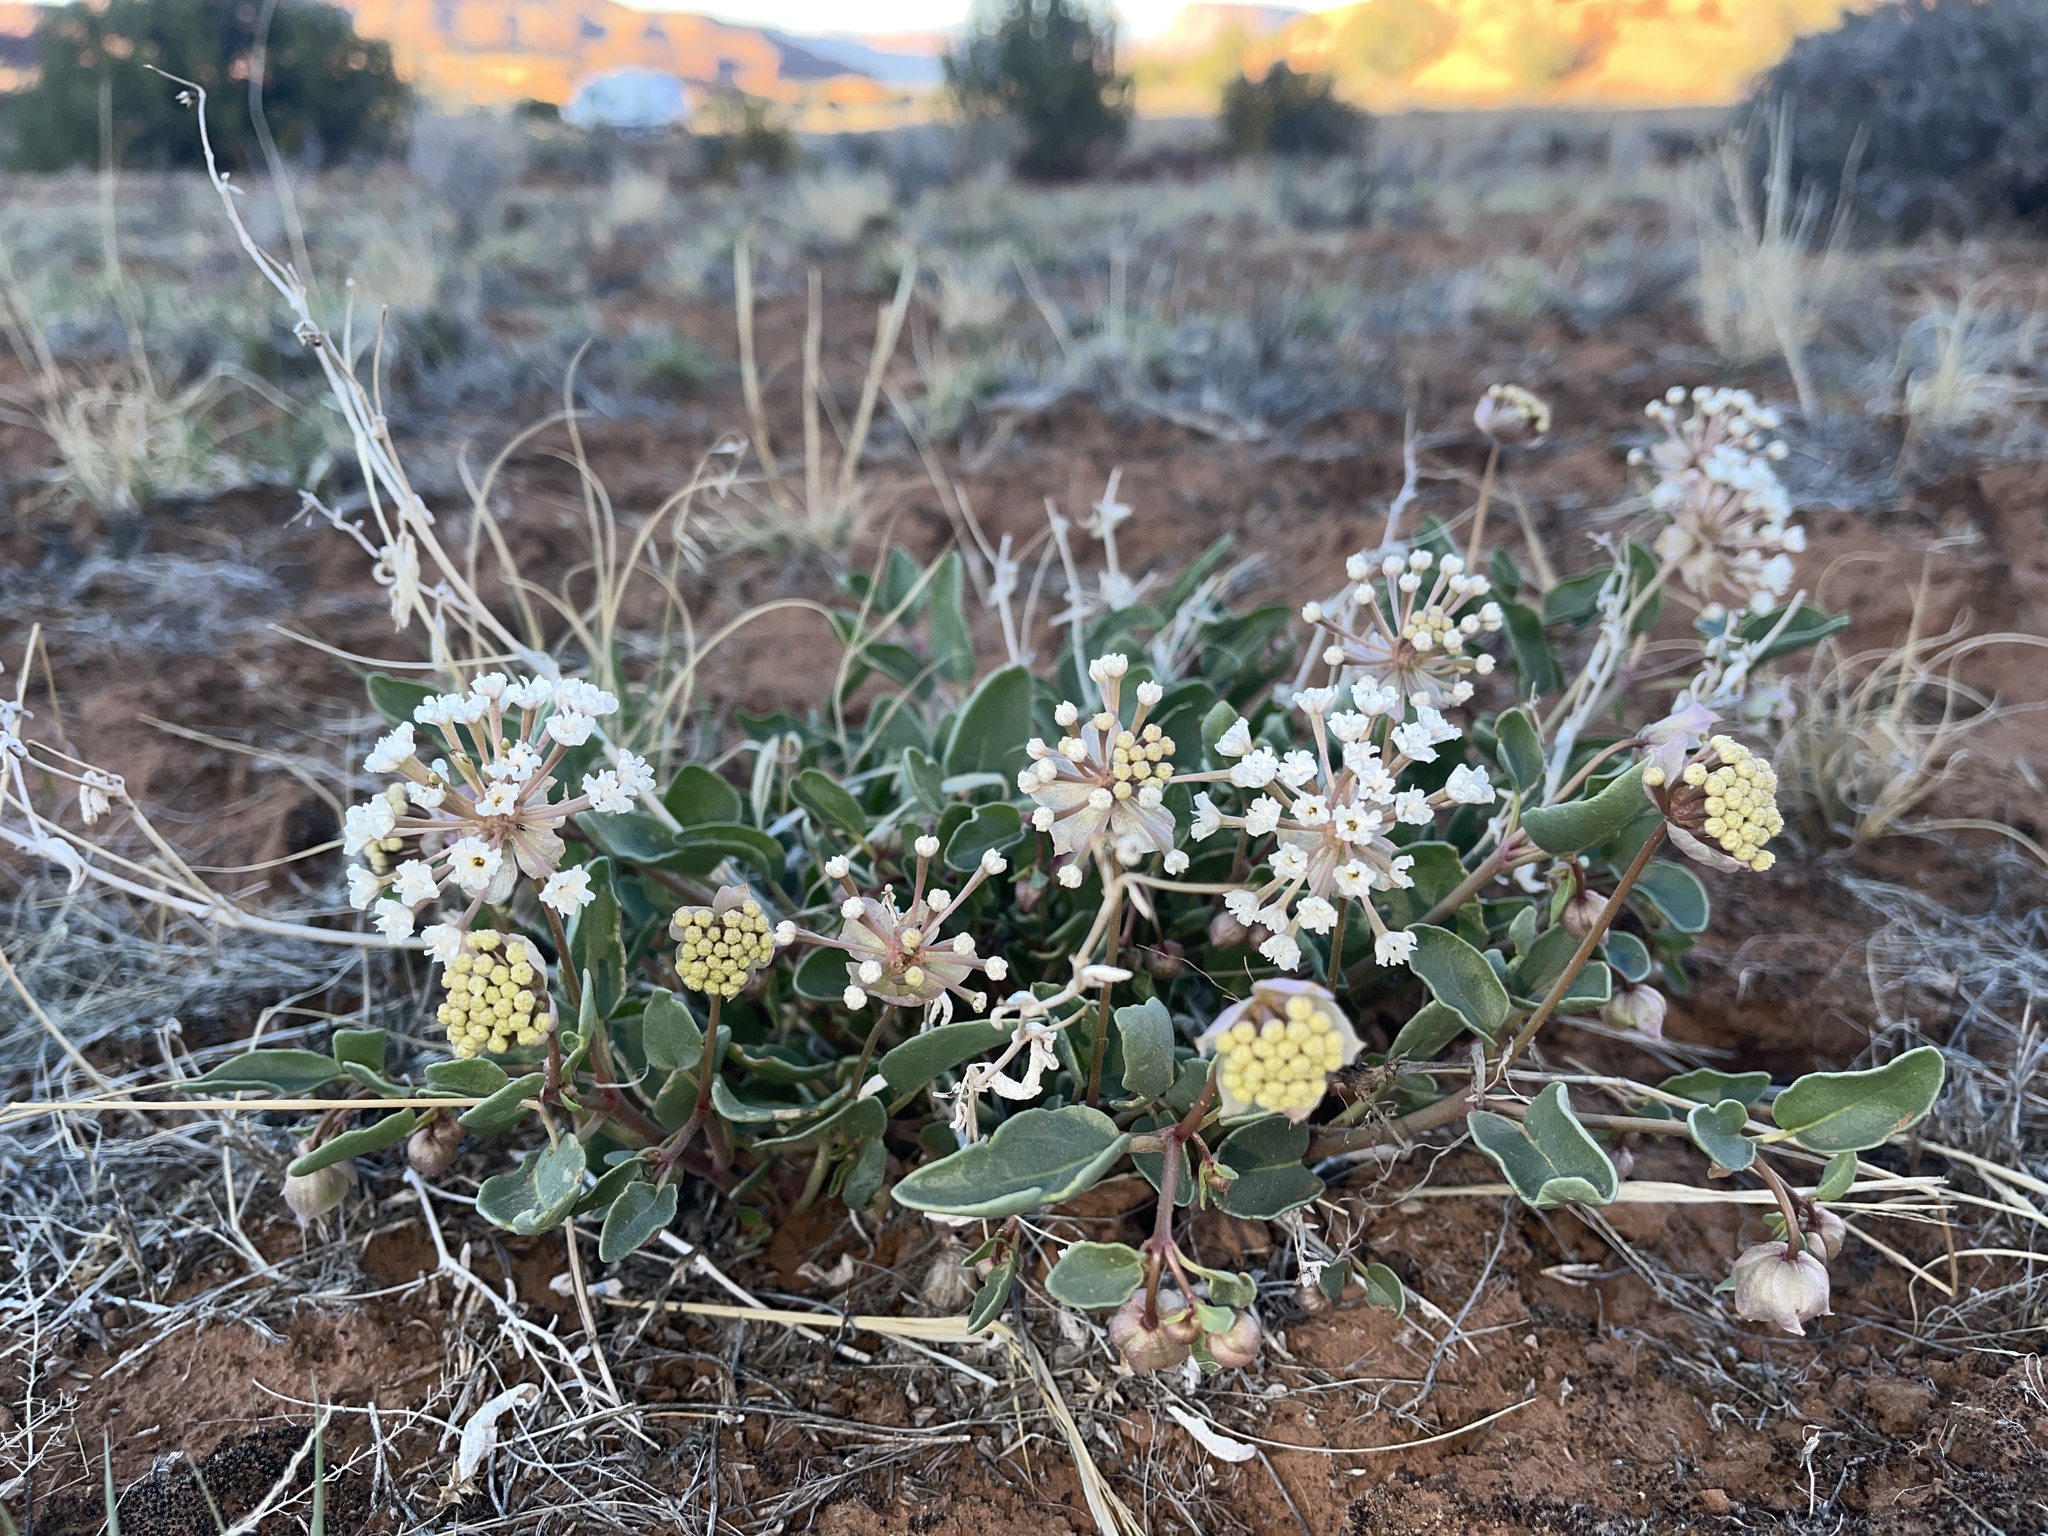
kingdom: Plantae
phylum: Tracheophyta
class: Magnoliopsida
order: Caryophyllales
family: Nyctaginaceae
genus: Abronia
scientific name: Abronia elliptica
